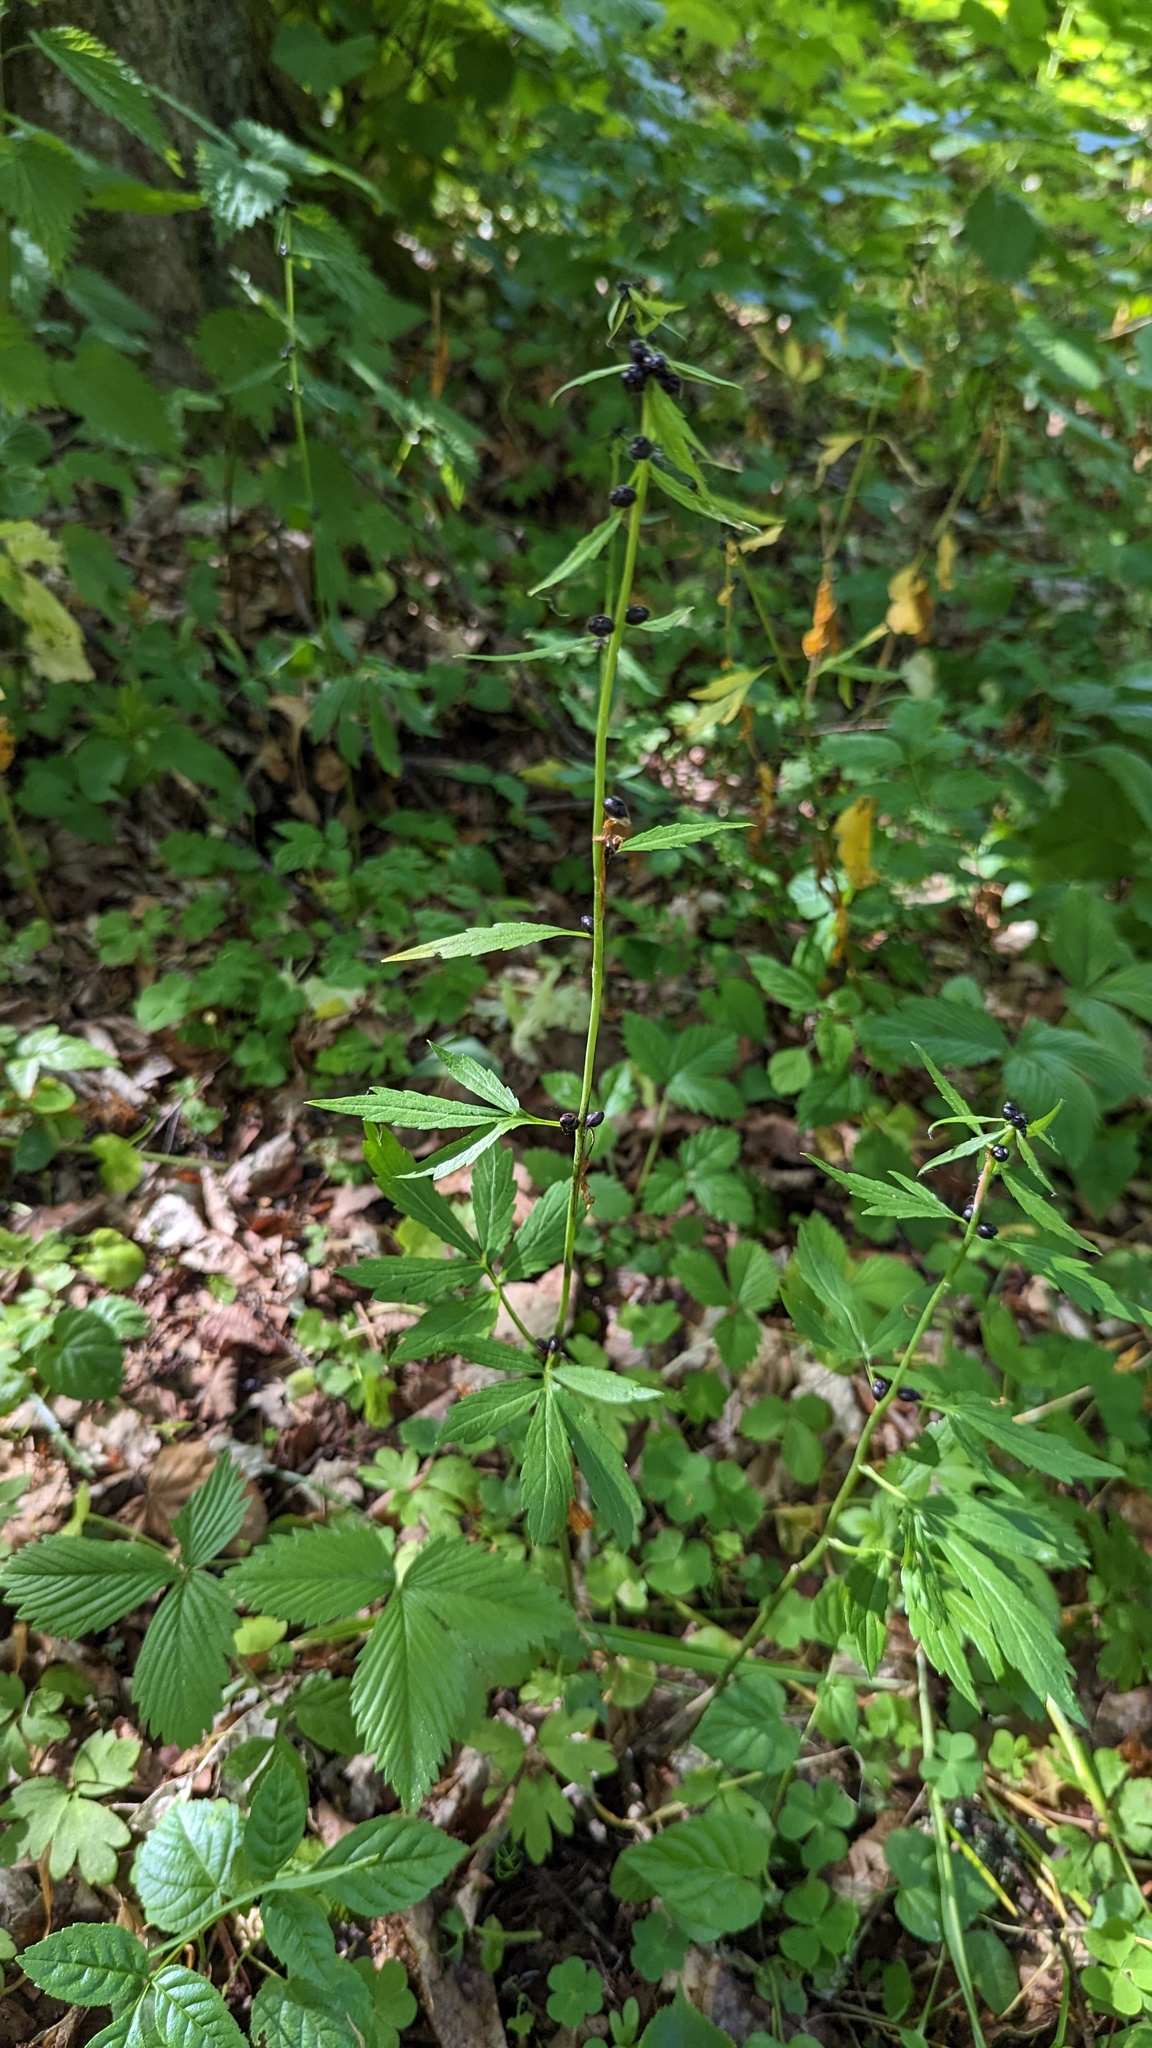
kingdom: Plantae
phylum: Tracheophyta
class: Magnoliopsida
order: Brassicales
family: Brassicaceae
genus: Cardamine
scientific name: Cardamine bulbifera
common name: Coralroot bittercress
